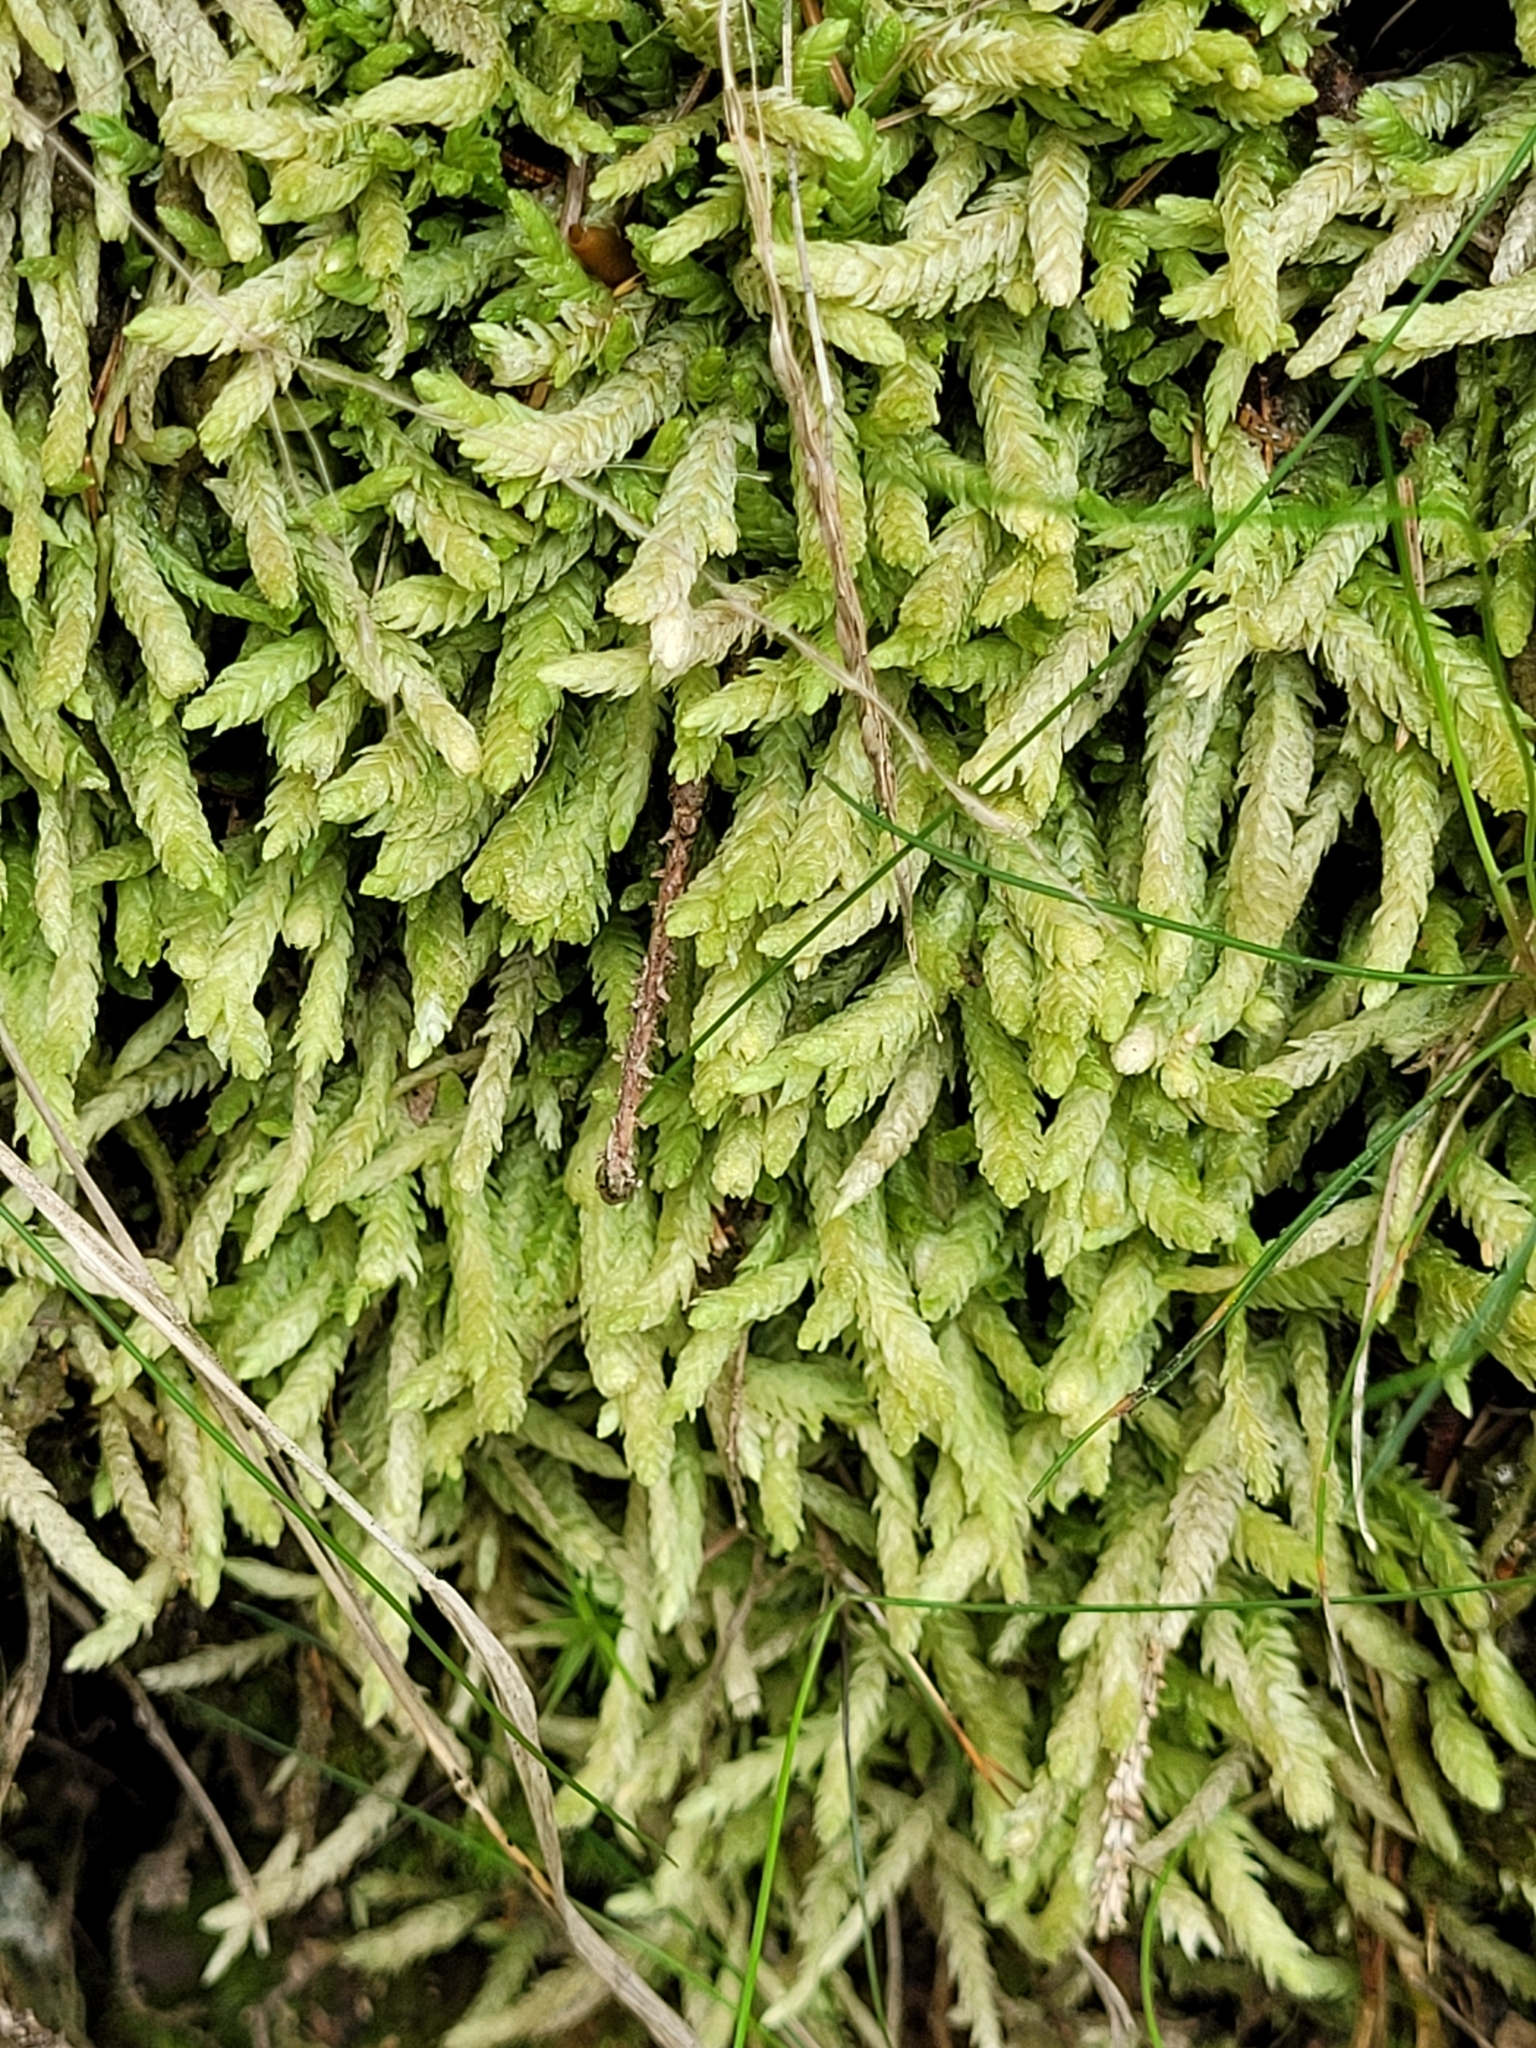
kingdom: Plantae
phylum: Bryophyta
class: Bryopsida
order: Hypnales
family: Plagiotheciaceae
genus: Plagiothecium
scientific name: Plagiothecium undulatum
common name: Waved silk-moss
